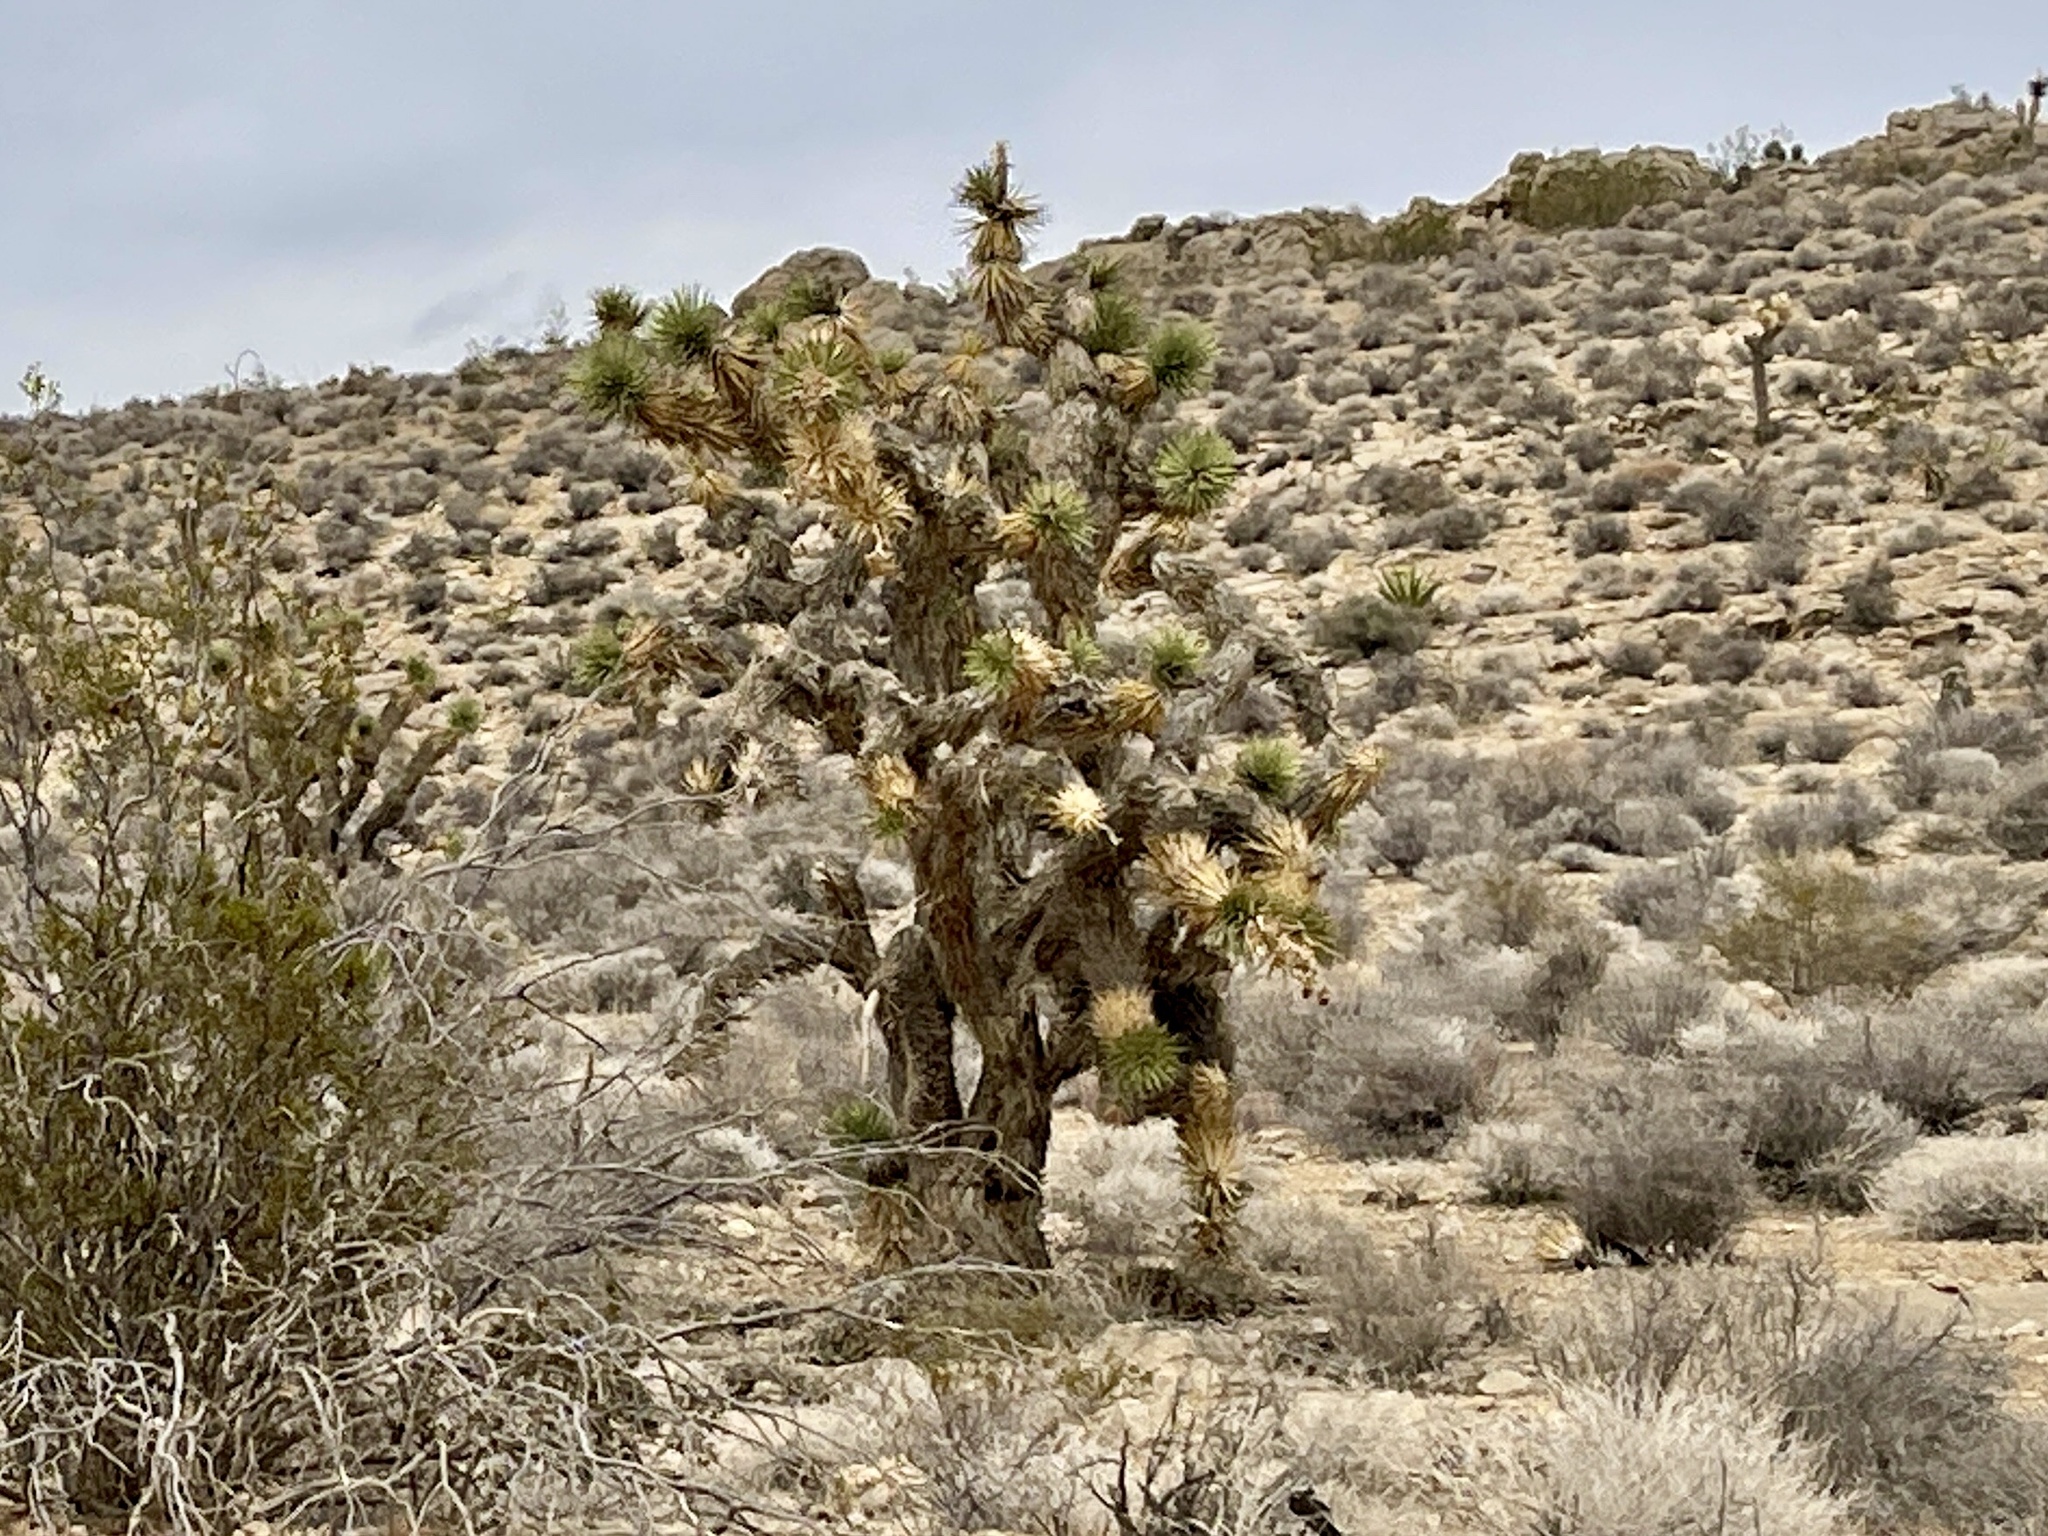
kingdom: Plantae
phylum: Tracheophyta
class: Liliopsida
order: Asparagales
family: Asparagaceae
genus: Yucca
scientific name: Yucca brevifolia
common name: Joshua tree
